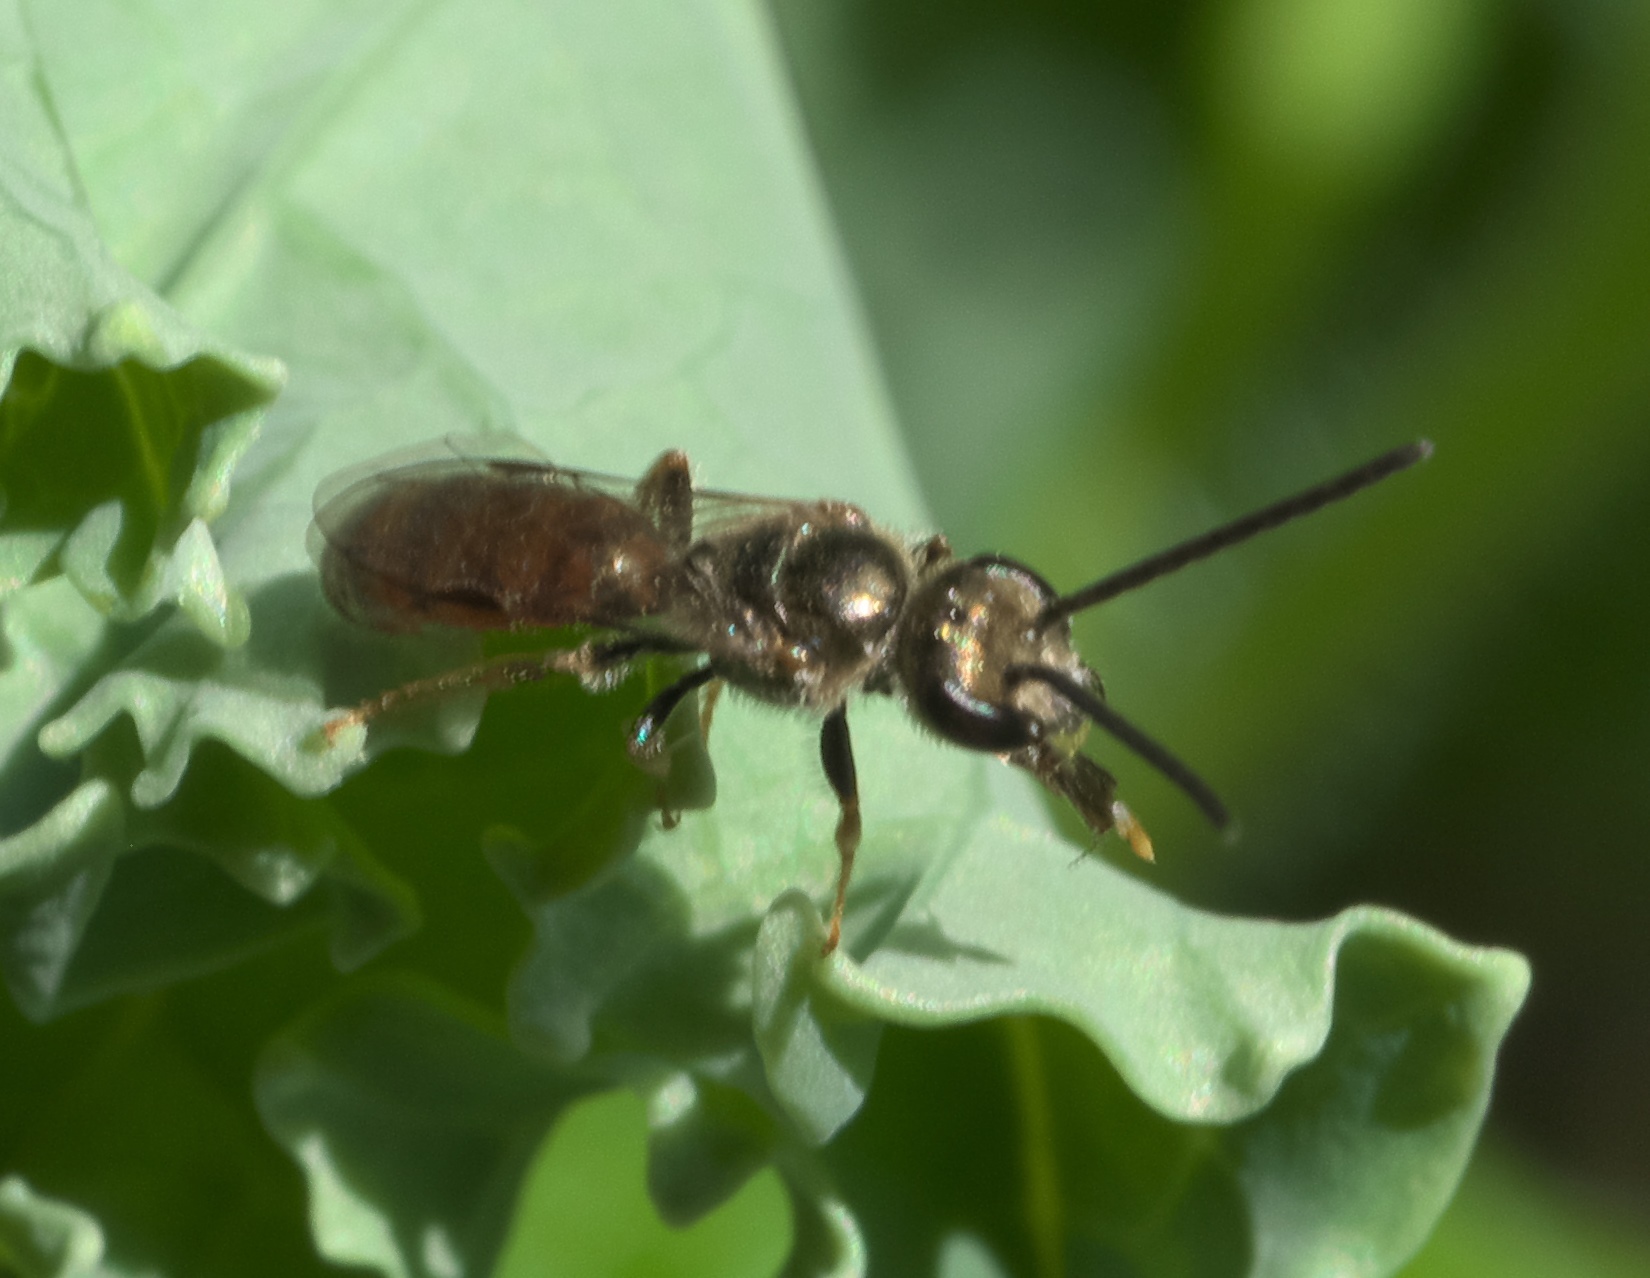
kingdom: Animalia
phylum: Arthropoda
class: Insecta
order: Hymenoptera
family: Halictidae
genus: Lasioglossum
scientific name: Lasioglossum zephyrum
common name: Zephyr sweat bee
